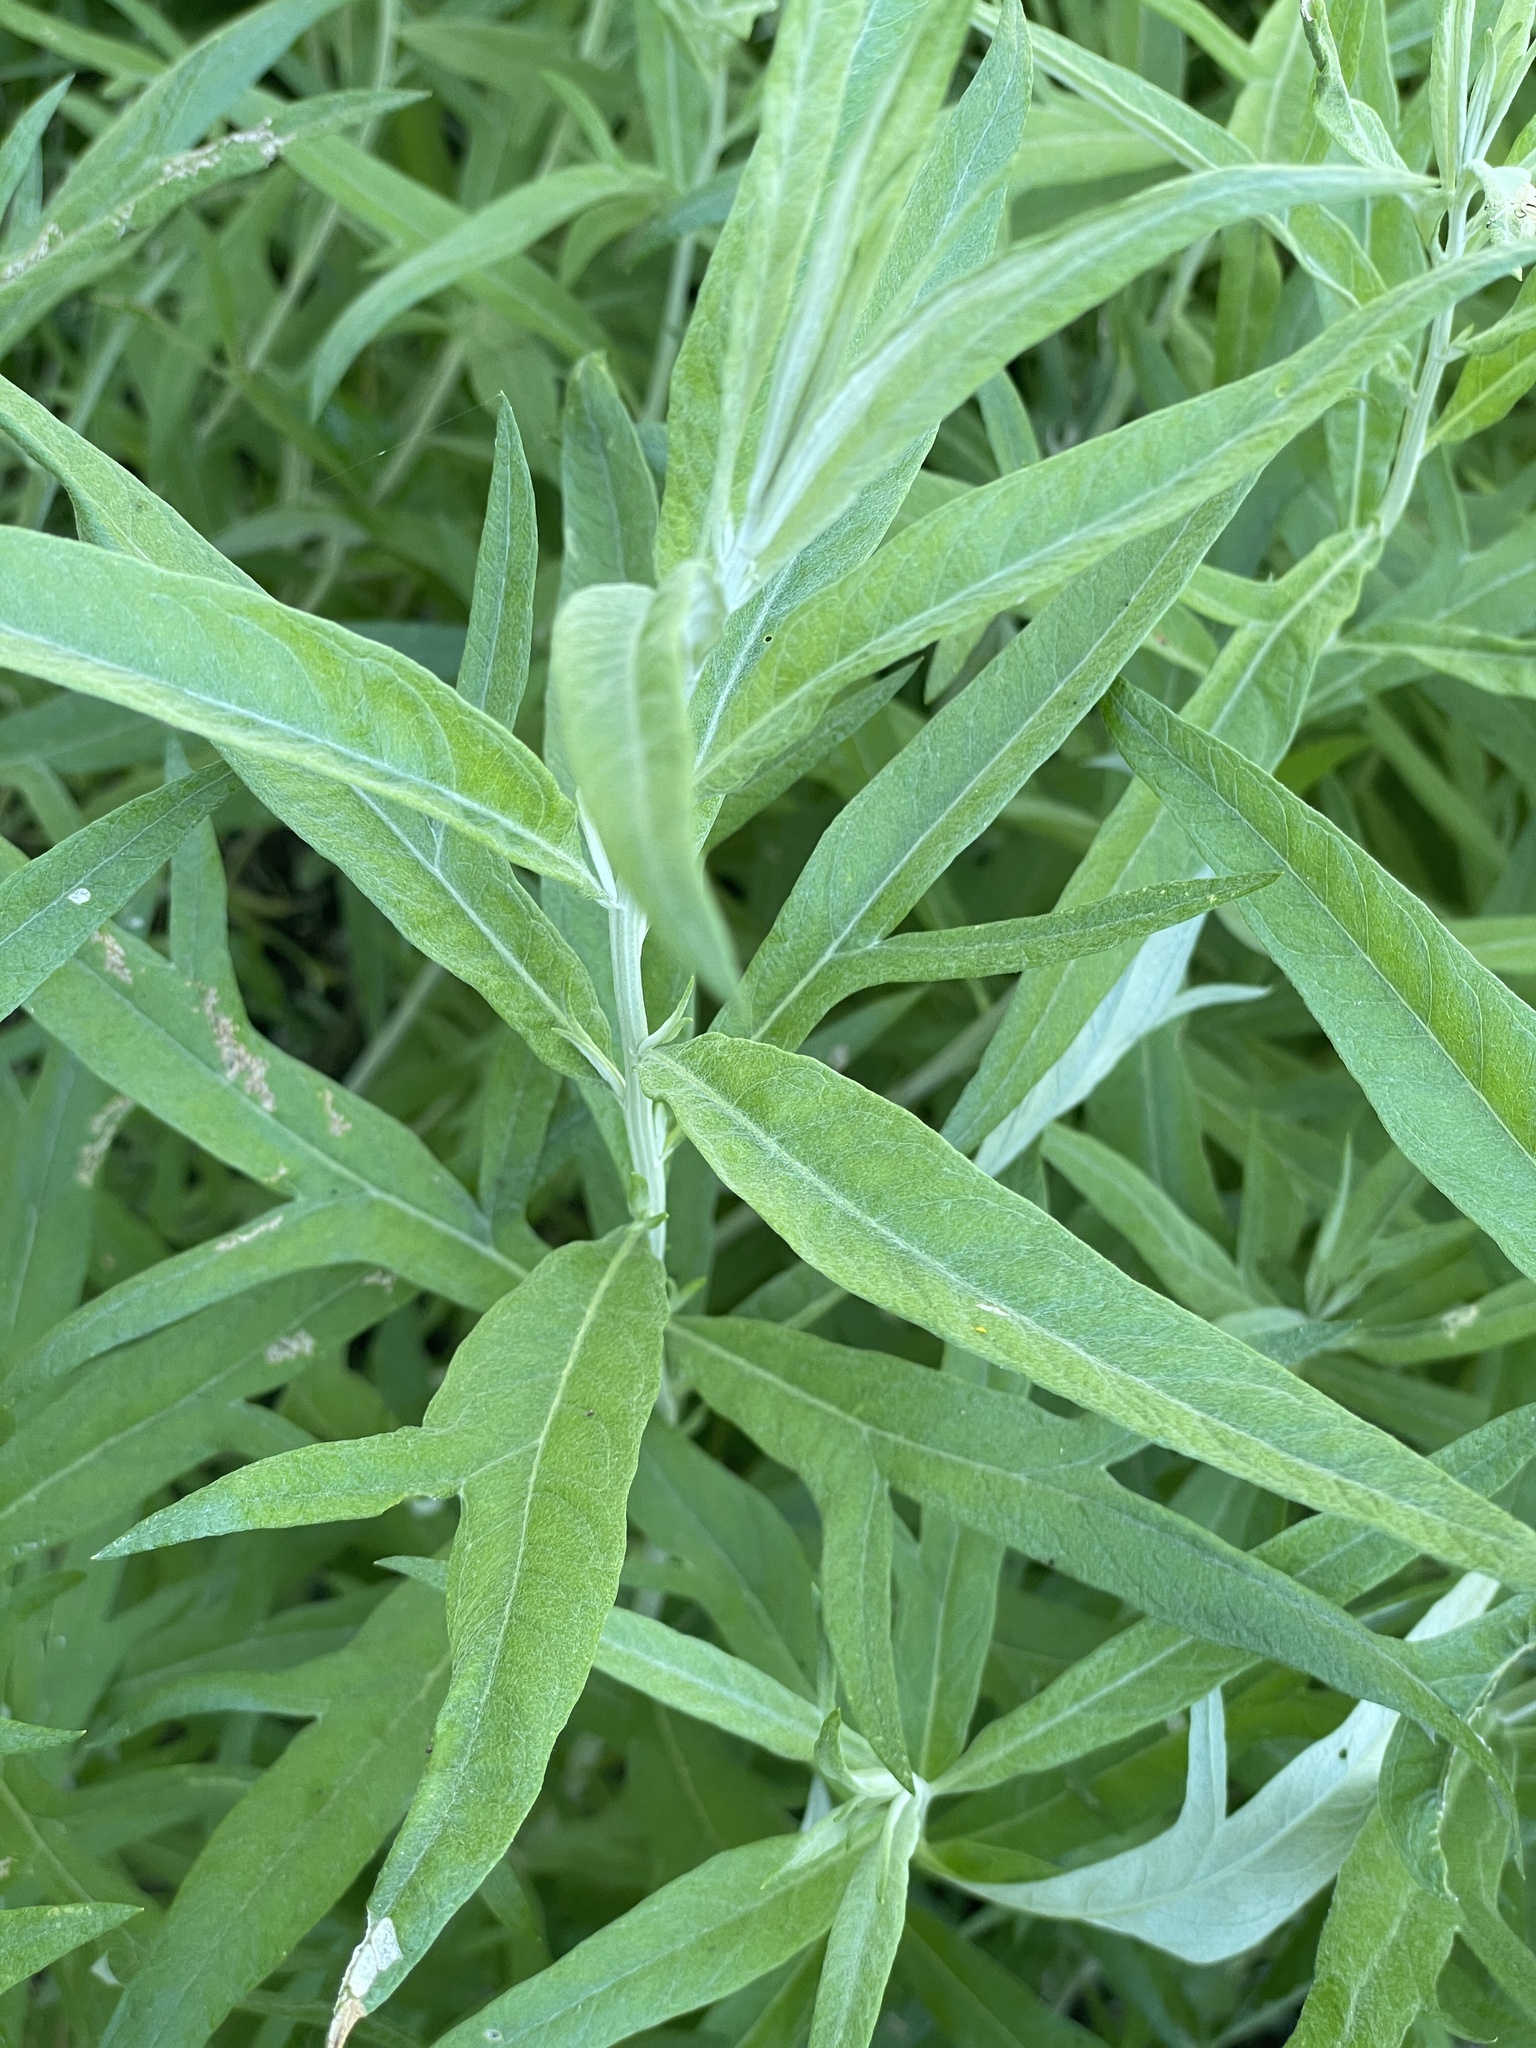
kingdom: Plantae
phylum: Tracheophyta
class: Magnoliopsida
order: Asterales
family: Asteraceae
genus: Artemisia
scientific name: Artemisia ludoviciana
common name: Western mugwort
